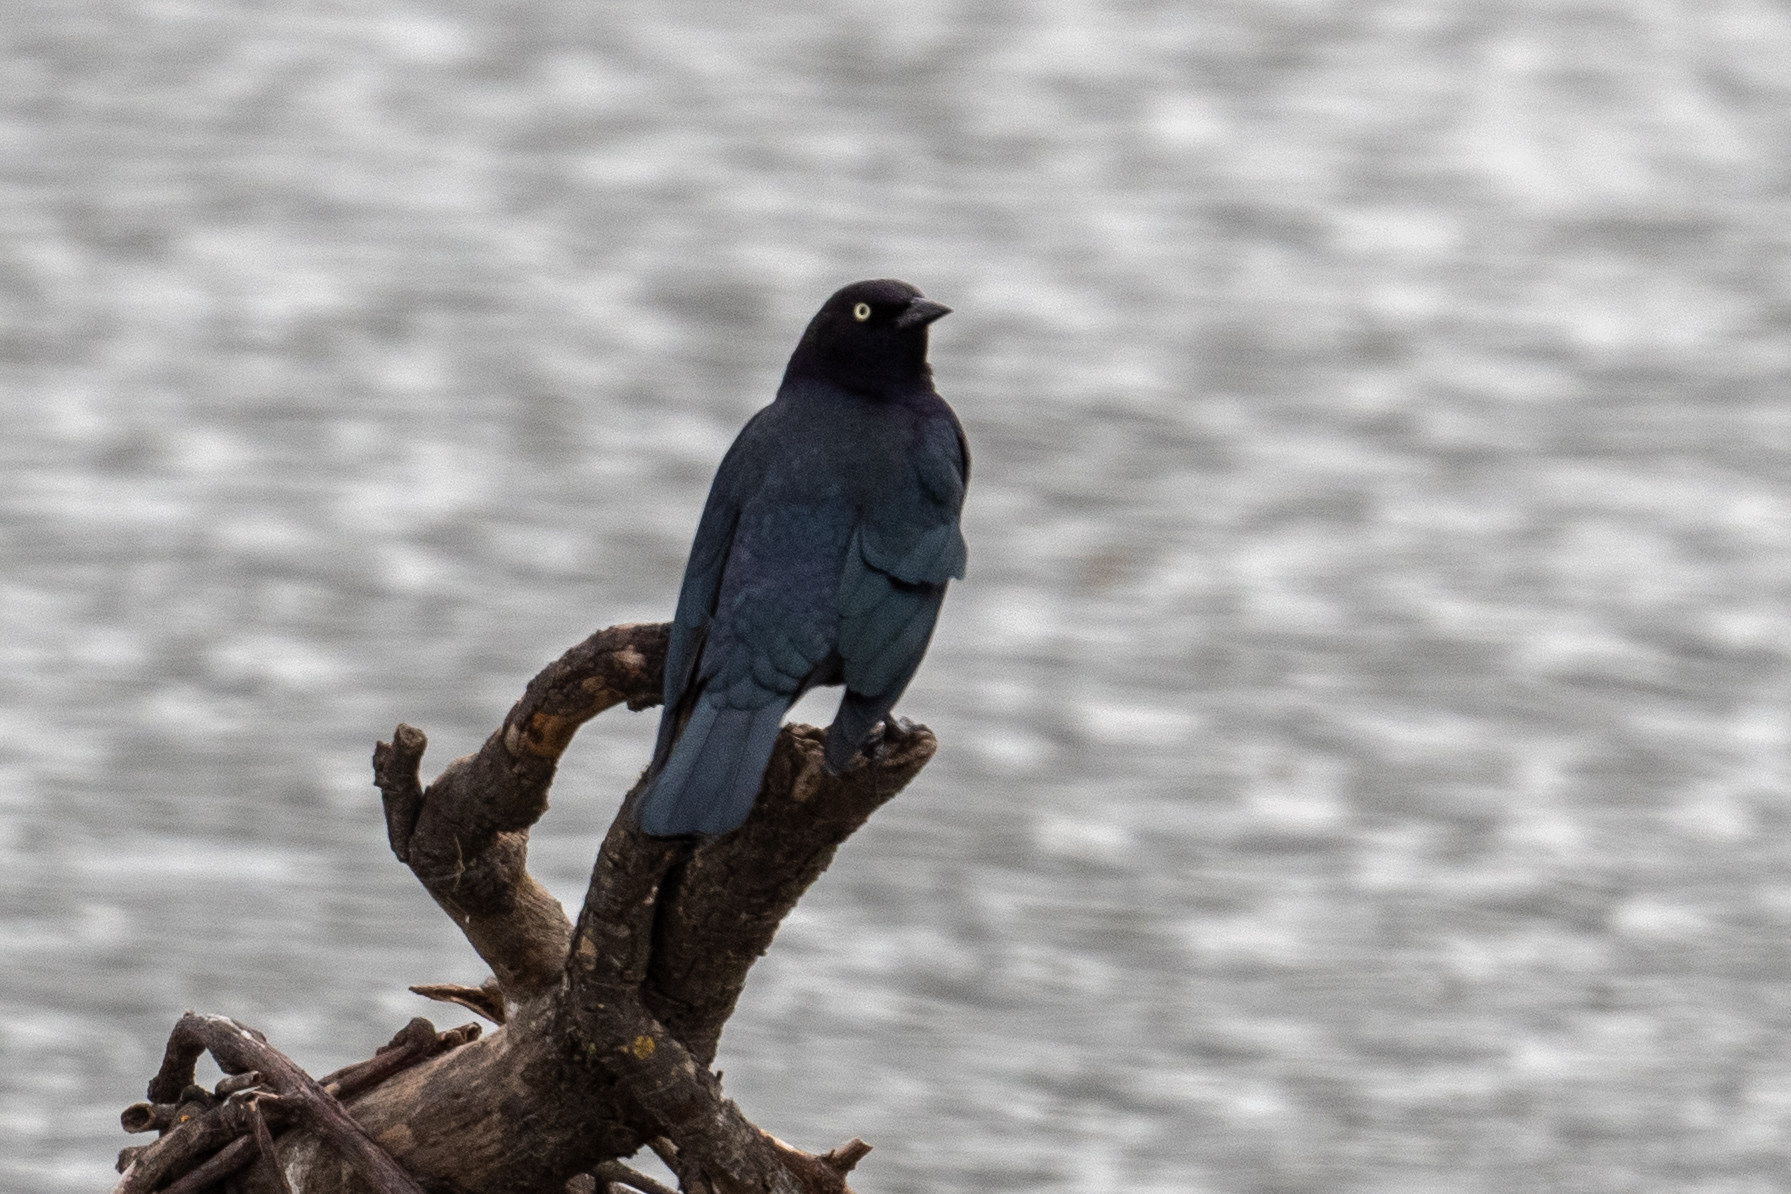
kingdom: Animalia
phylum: Chordata
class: Aves
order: Passeriformes
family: Icteridae
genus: Euphagus
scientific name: Euphagus cyanocephalus
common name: Brewer's blackbird
